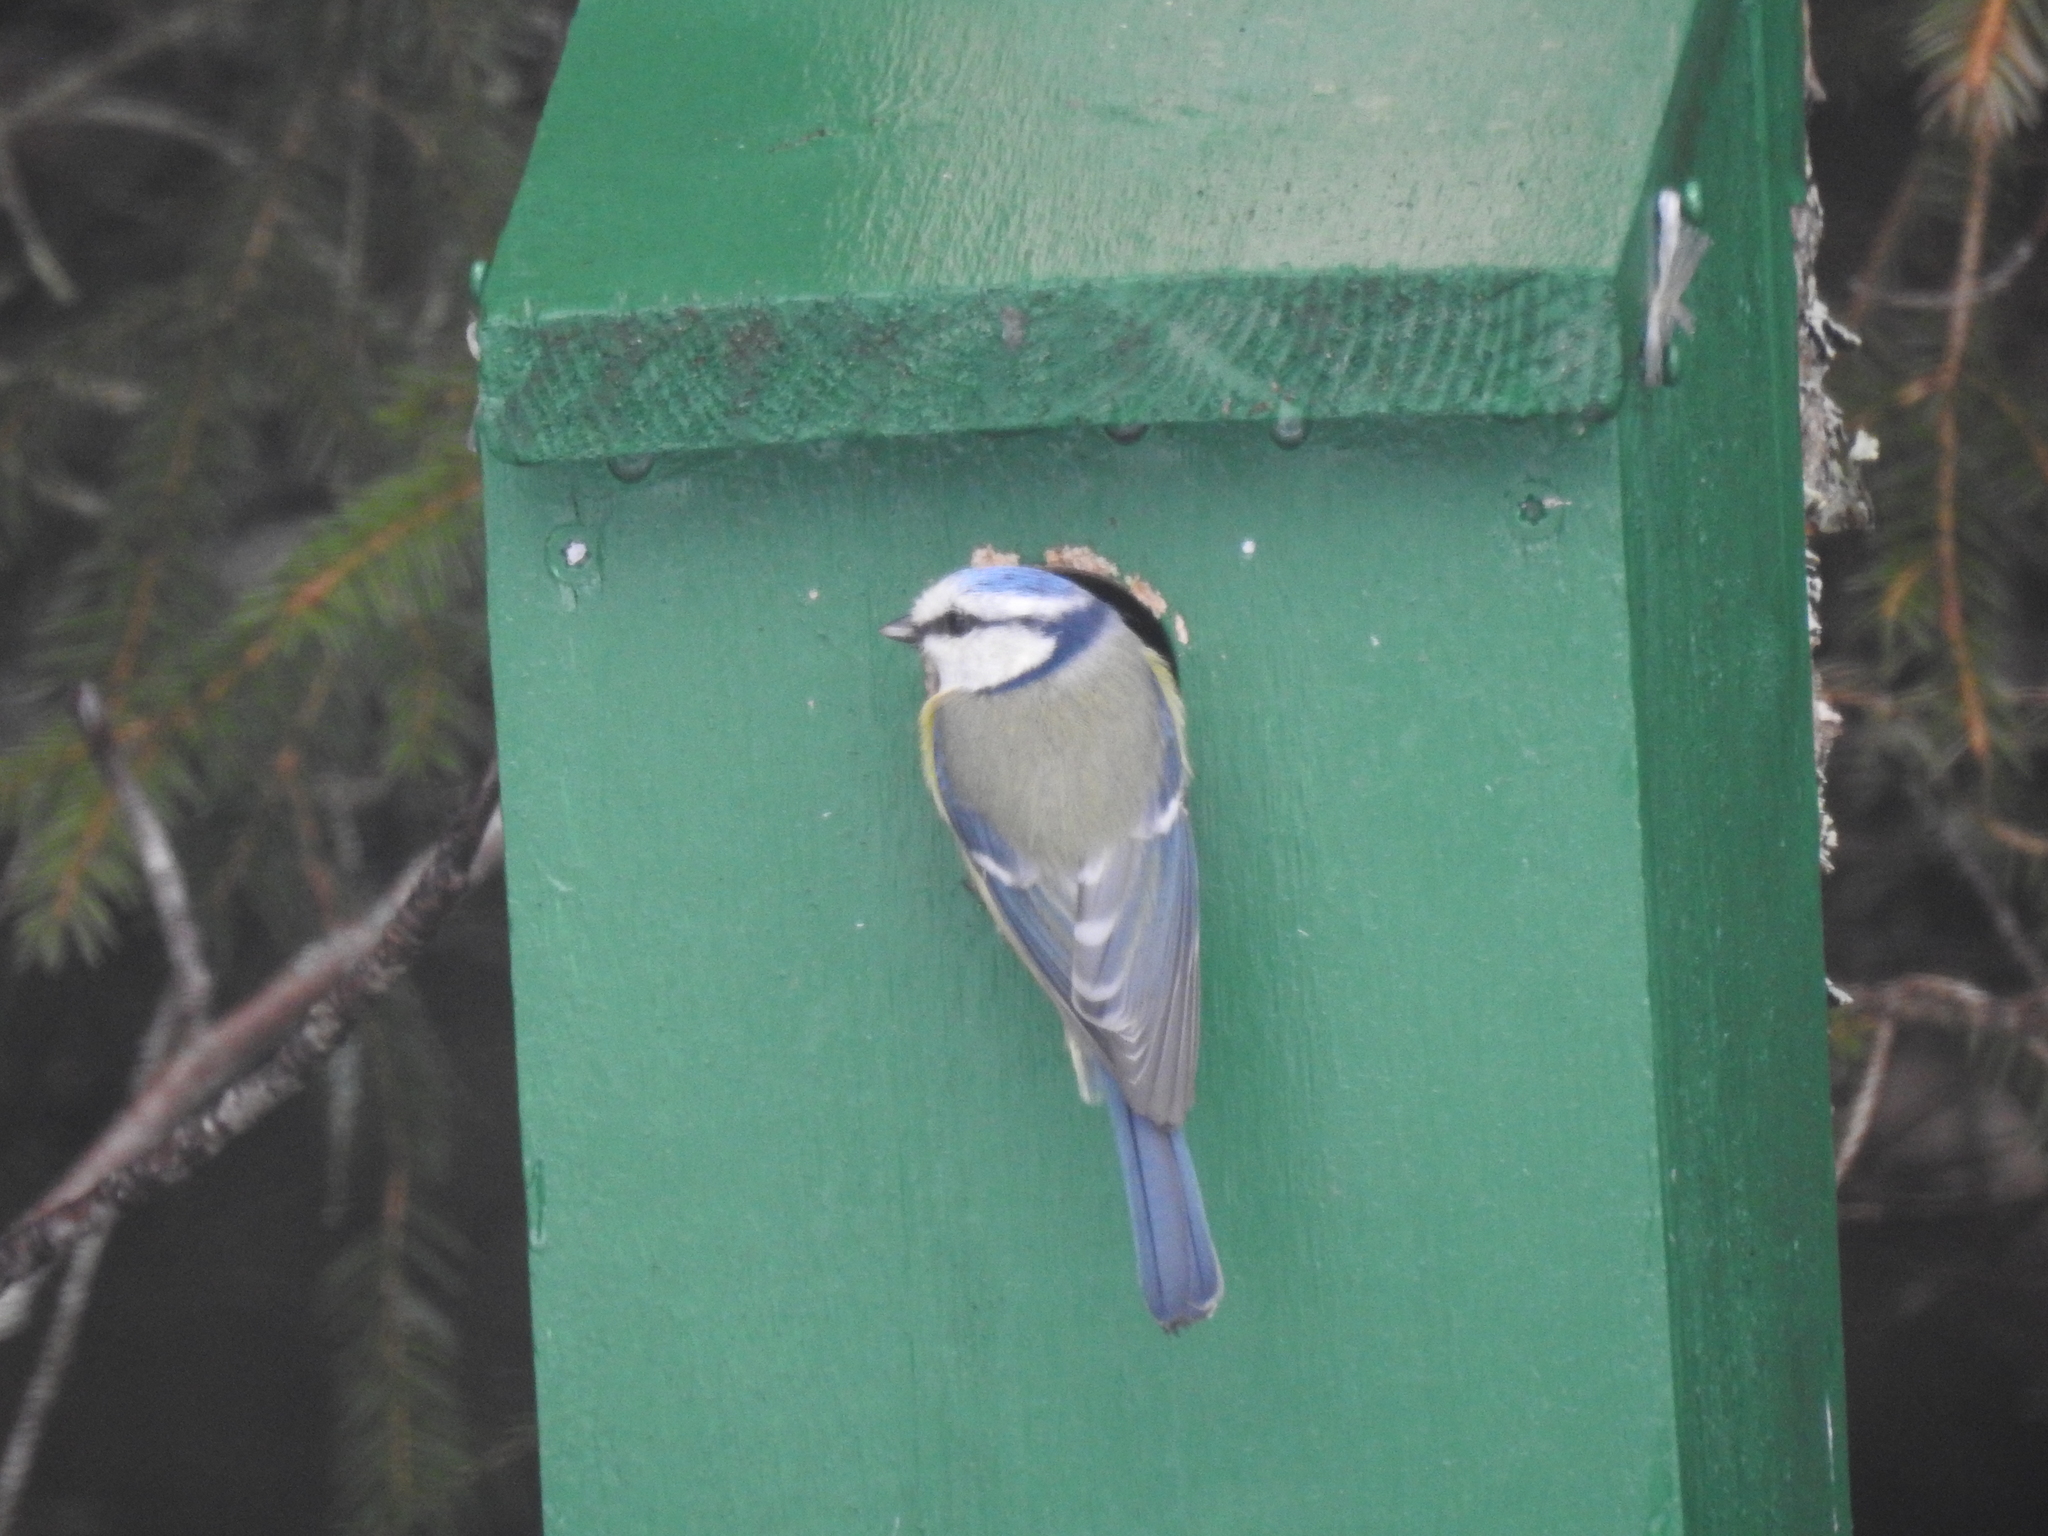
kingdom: Animalia
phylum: Chordata
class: Aves
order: Passeriformes
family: Paridae
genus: Cyanistes
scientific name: Cyanistes caeruleus
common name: Eurasian blue tit
